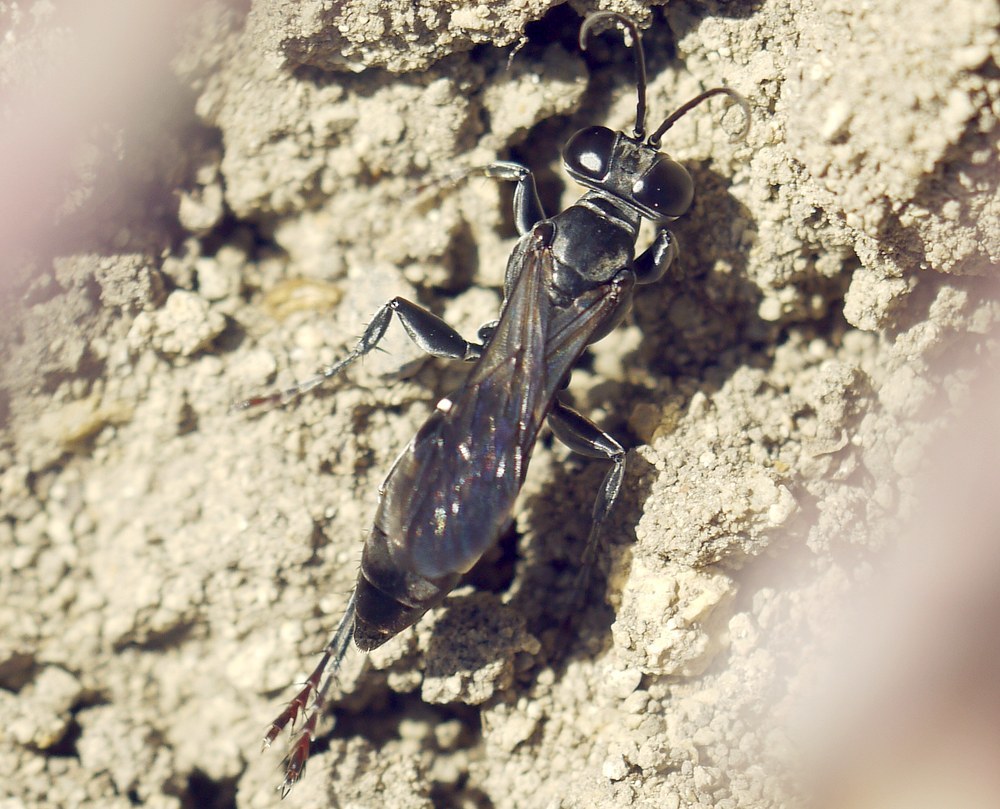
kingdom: Animalia
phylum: Arthropoda
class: Insecta
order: Hymenoptera
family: Crabronidae
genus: Liris
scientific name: Liris niger
